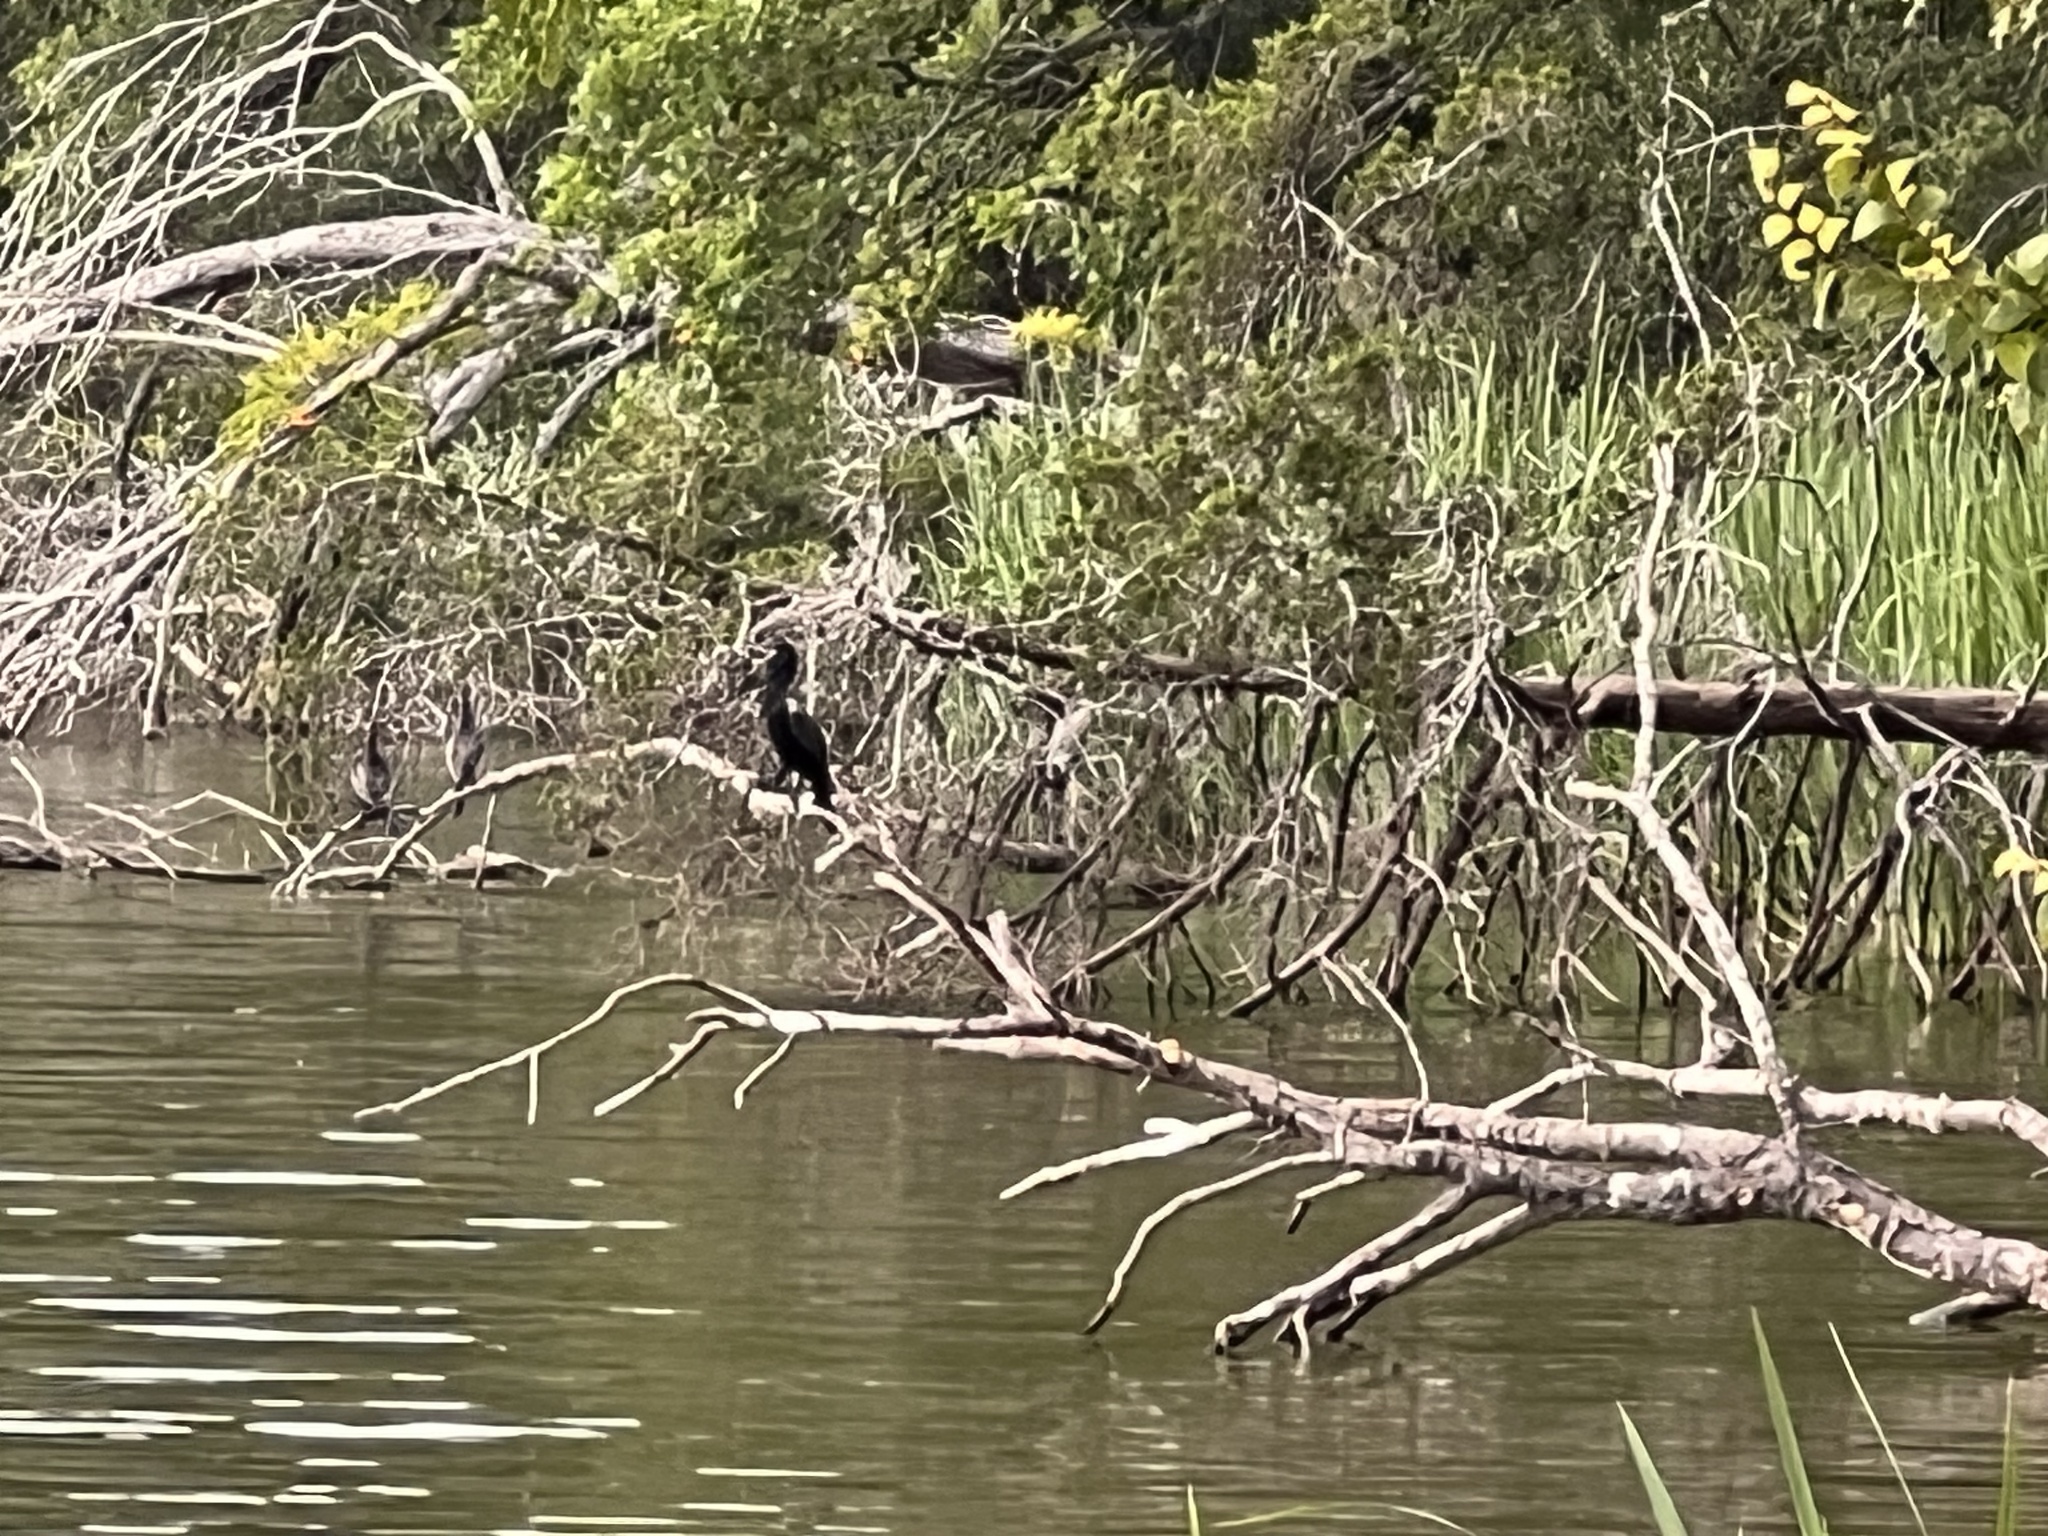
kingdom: Animalia
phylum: Chordata
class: Aves
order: Suliformes
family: Phalacrocoracidae
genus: Phalacrocorax
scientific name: Phalacrocorax brasilianus
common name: Neotropic cormorant
